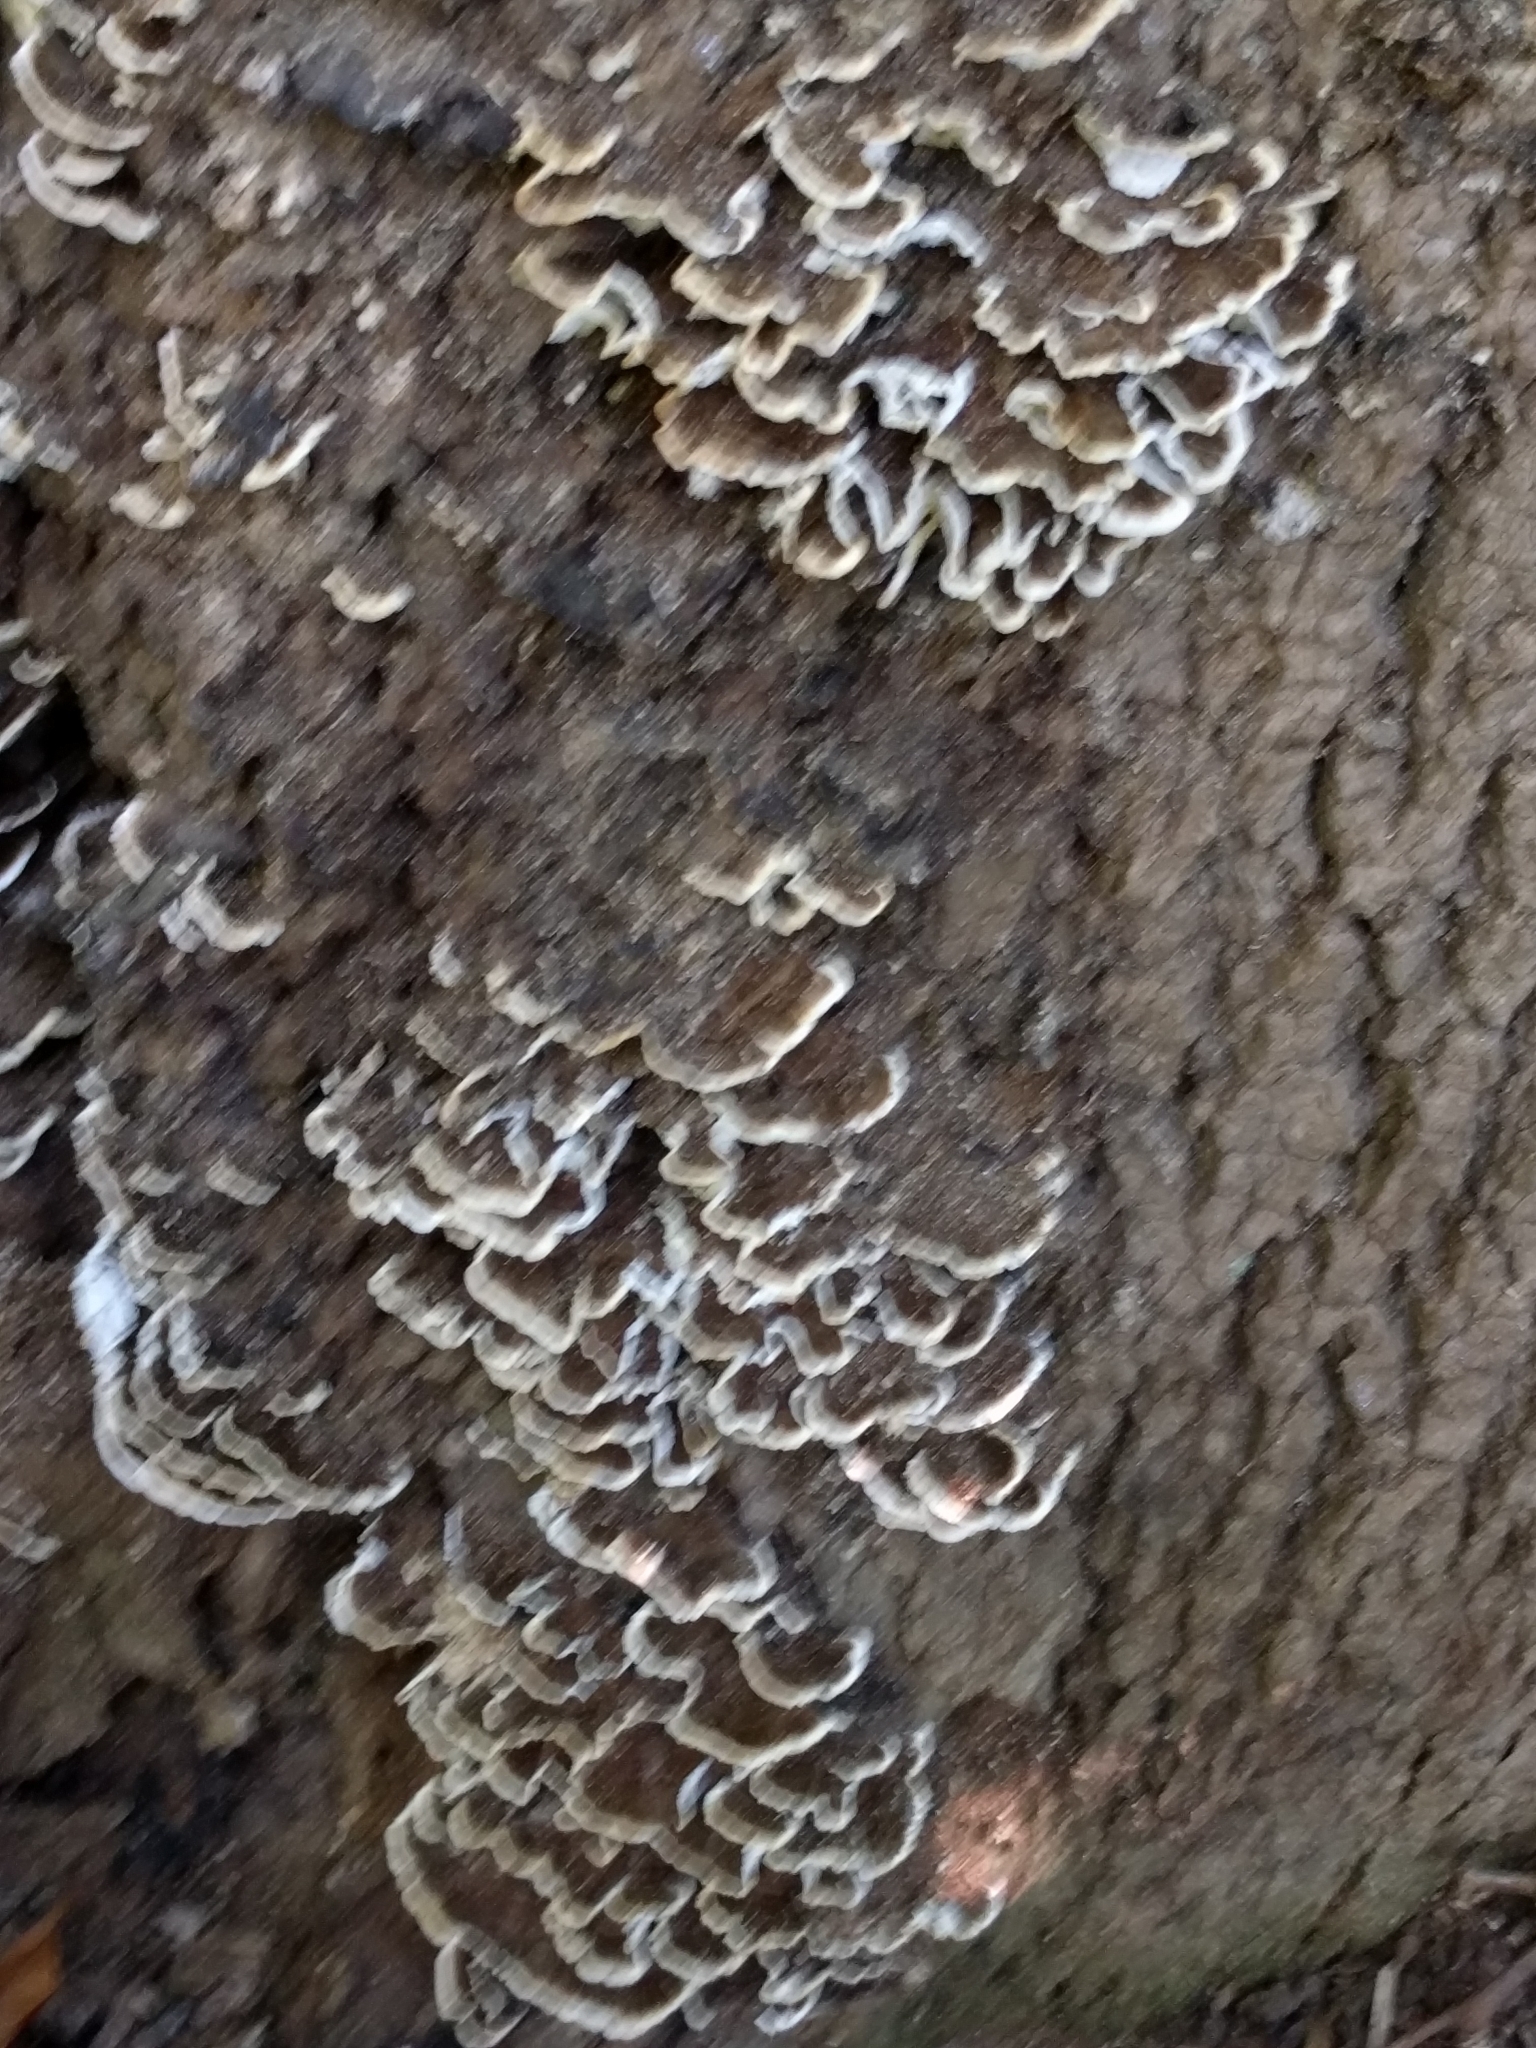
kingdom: Fungi
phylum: Basidiomycota
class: Agaricomycetes
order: Polyporales
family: Polyporaceae
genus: Trametes
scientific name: Trametes versicolor
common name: Turkeytail
